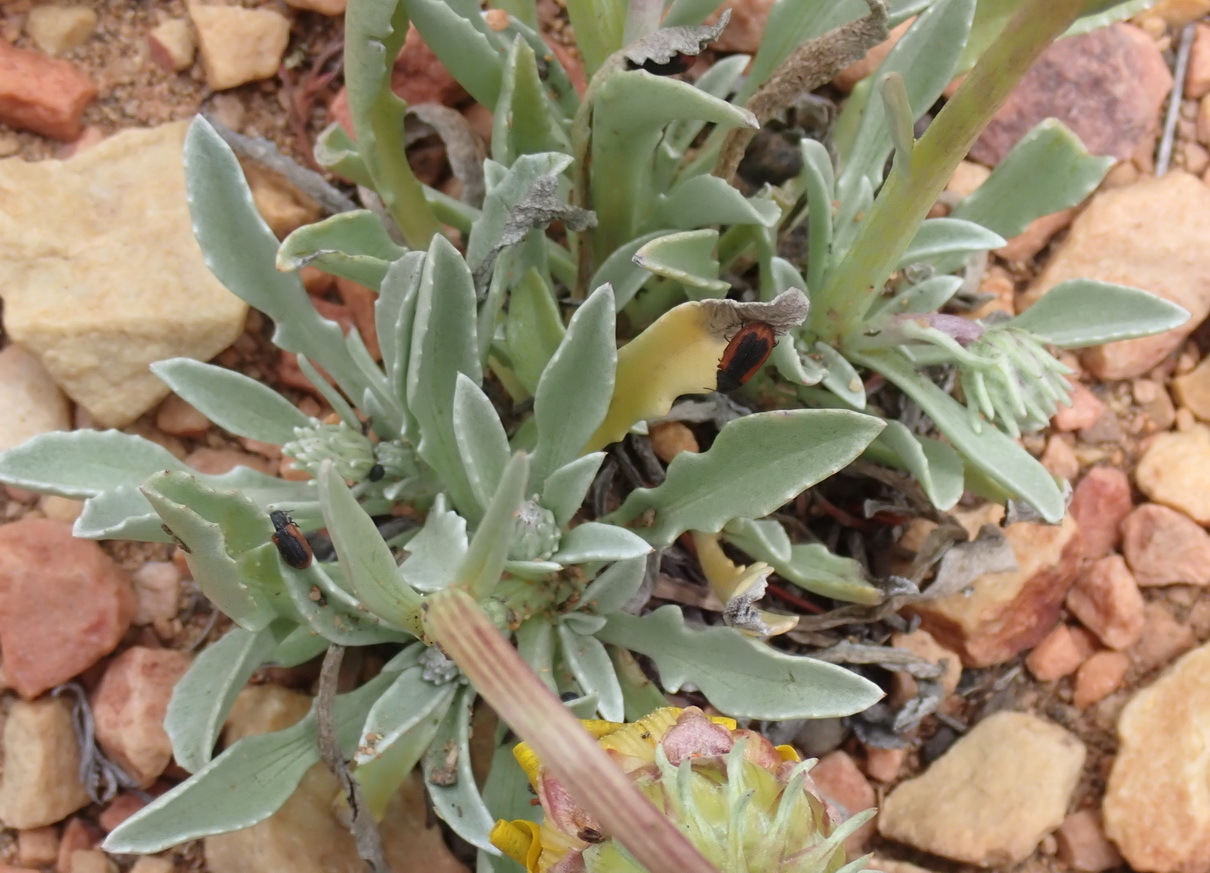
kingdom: Plantae
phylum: Tracheophyta
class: Magnoliopsida
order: Asterales
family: Asteraceae
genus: Arctotis
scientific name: Arctotis lanceolata
